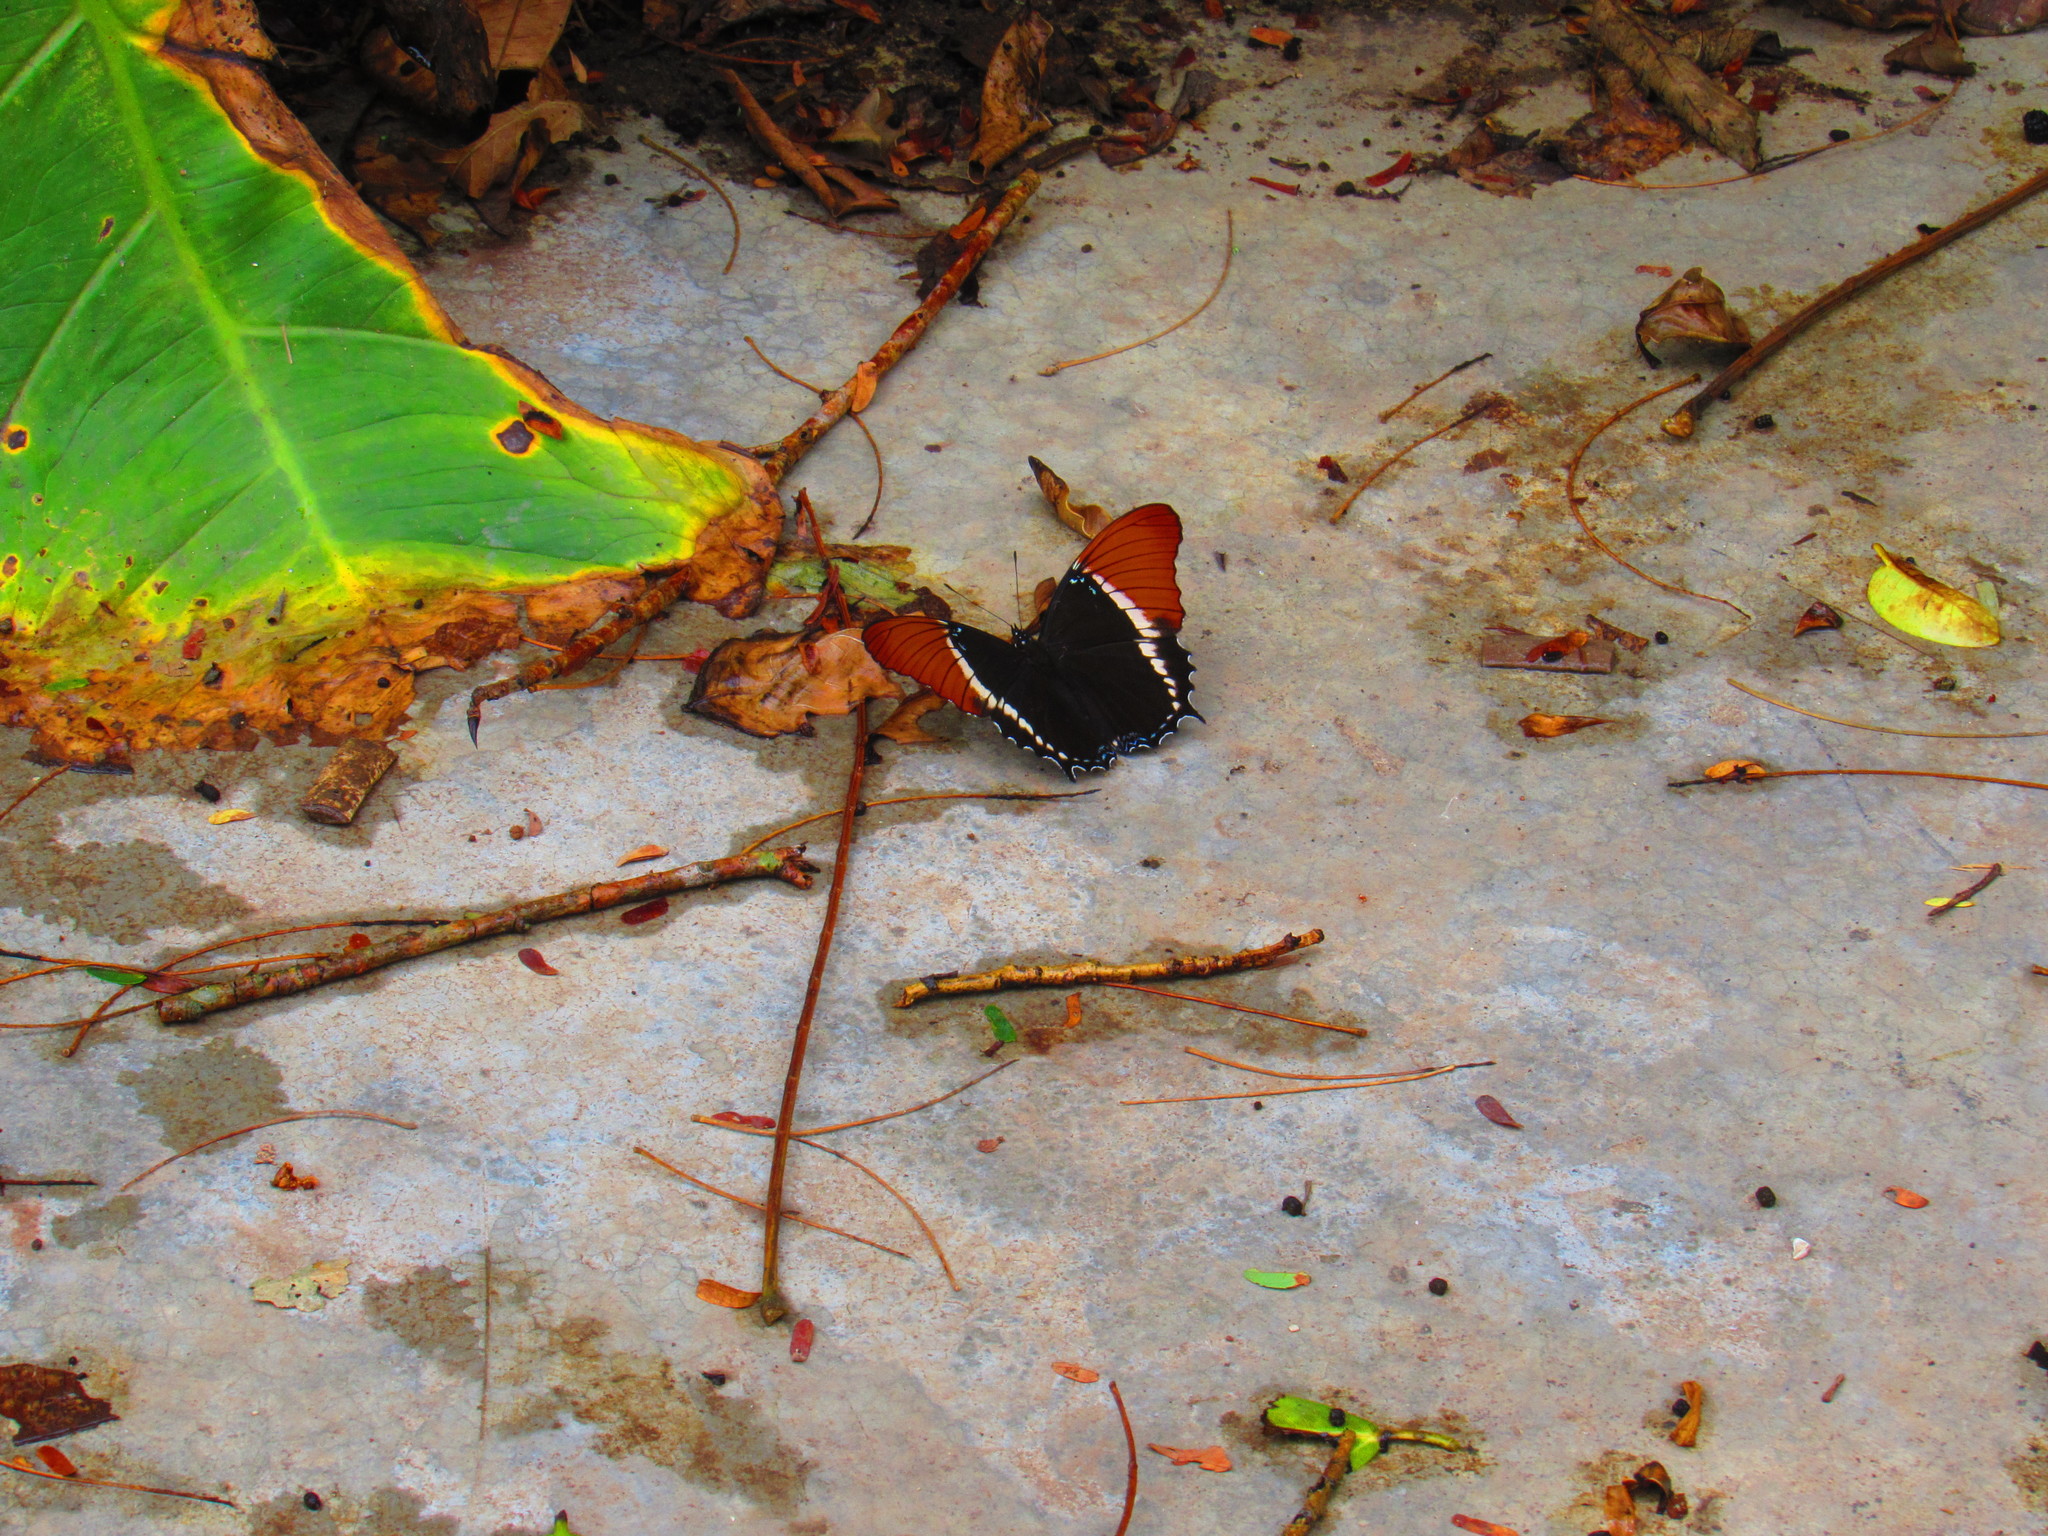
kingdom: Animalia
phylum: Arthropoda
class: Insecta
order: Lepidoptera
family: Nymphalidae
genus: Siproeta
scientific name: Siproeta epaphus
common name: Rusty-tipped page
